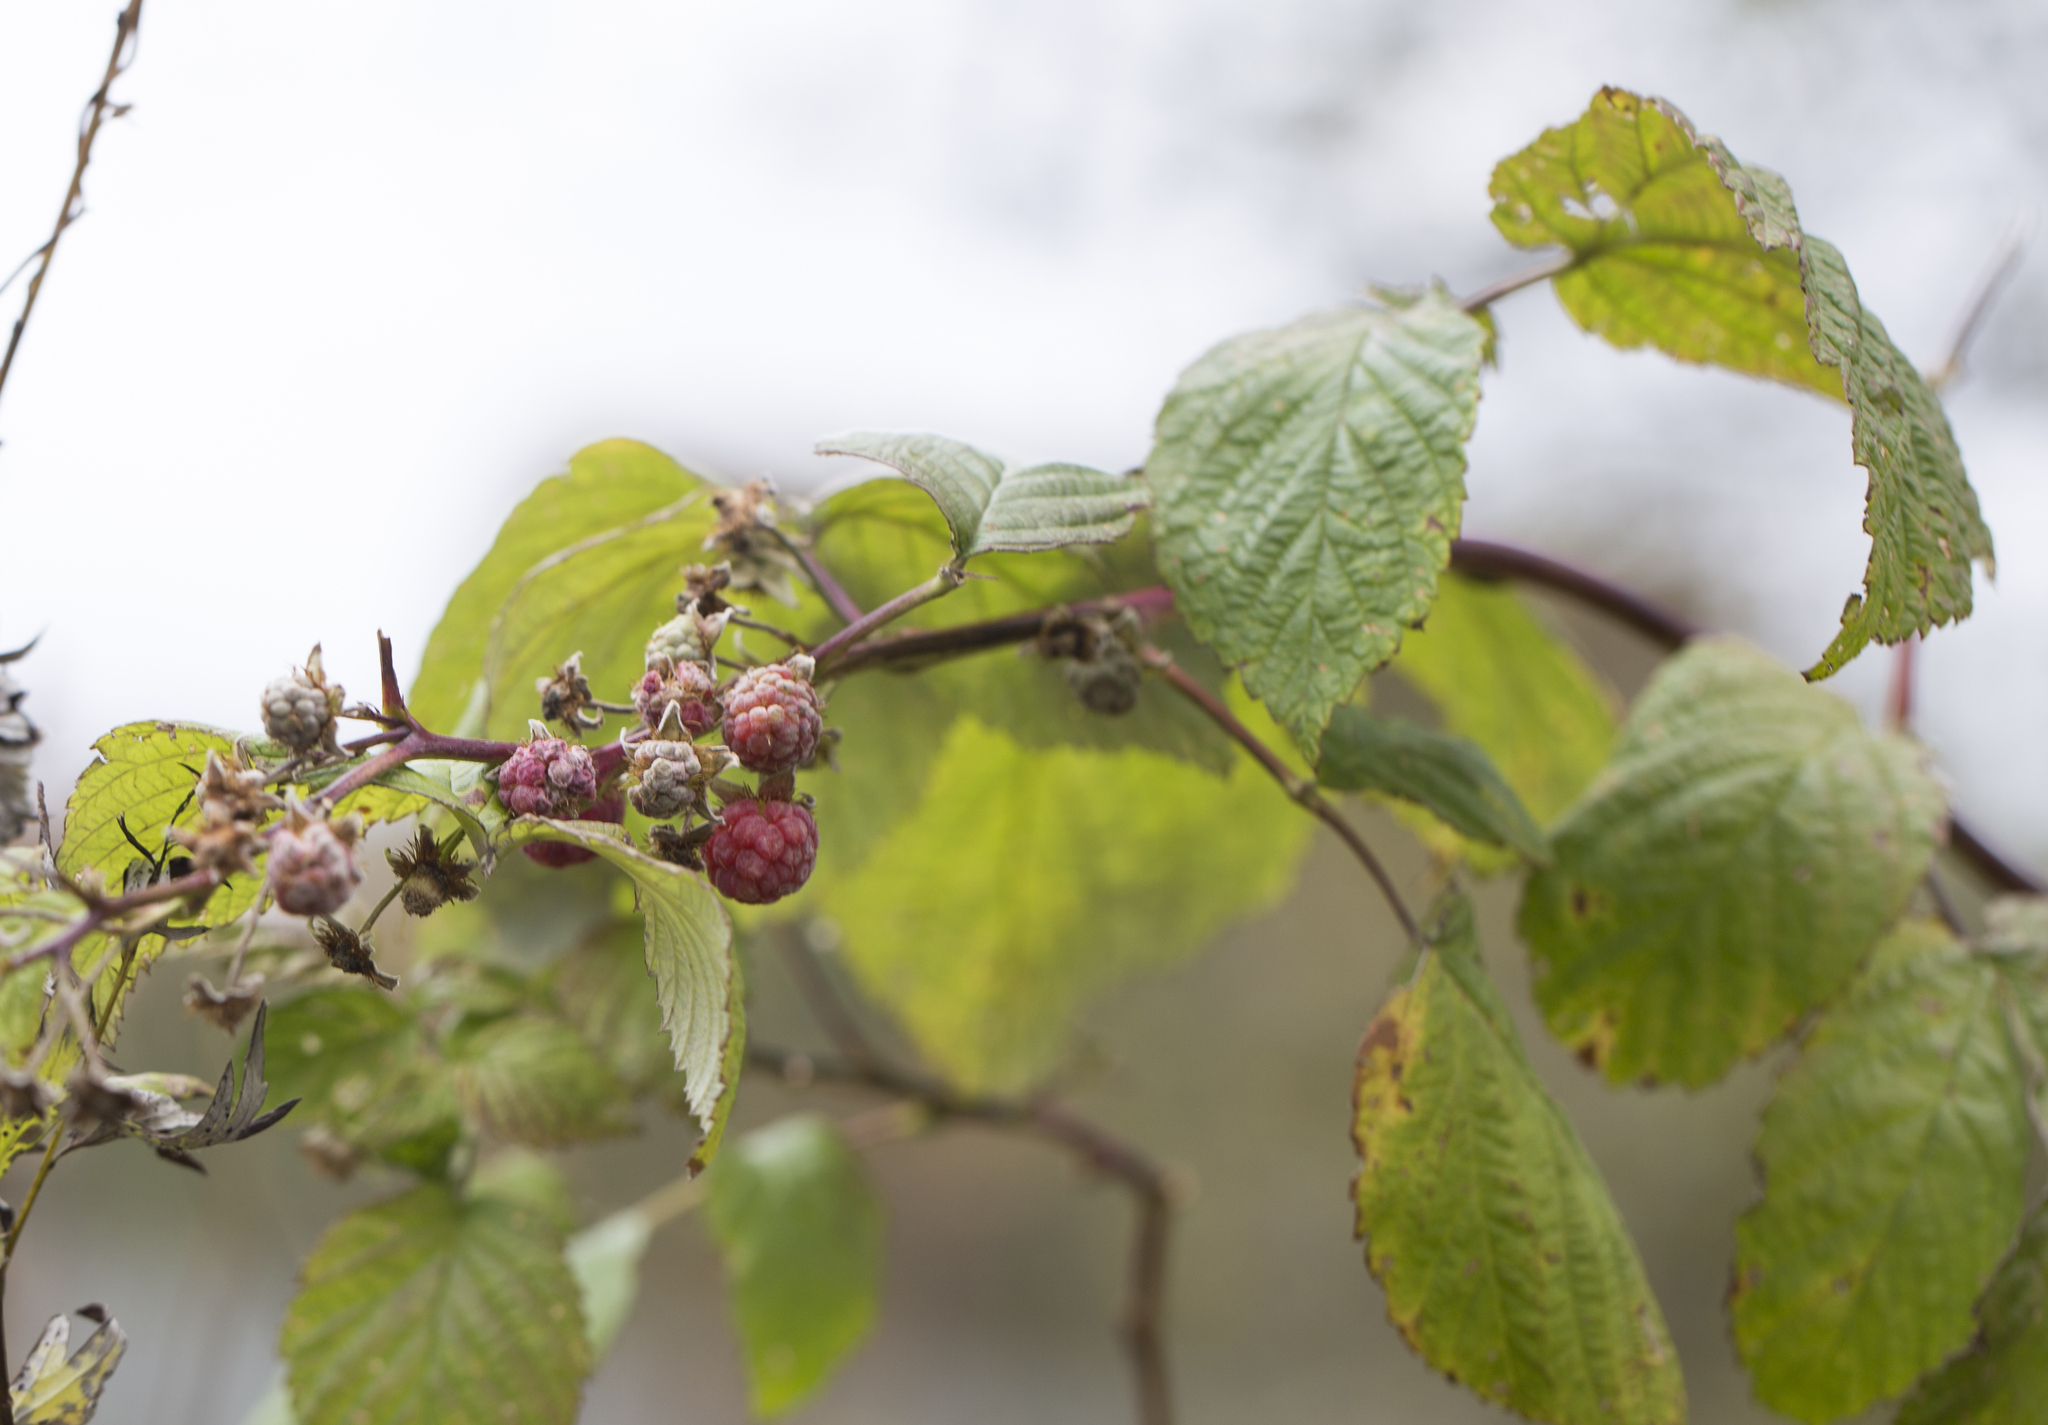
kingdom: Plantae
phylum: Tracheophyta
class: Magnoliopsida
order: Rosales
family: Rosaceae
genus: Rubus
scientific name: Rubus idaeus
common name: Raspberry
